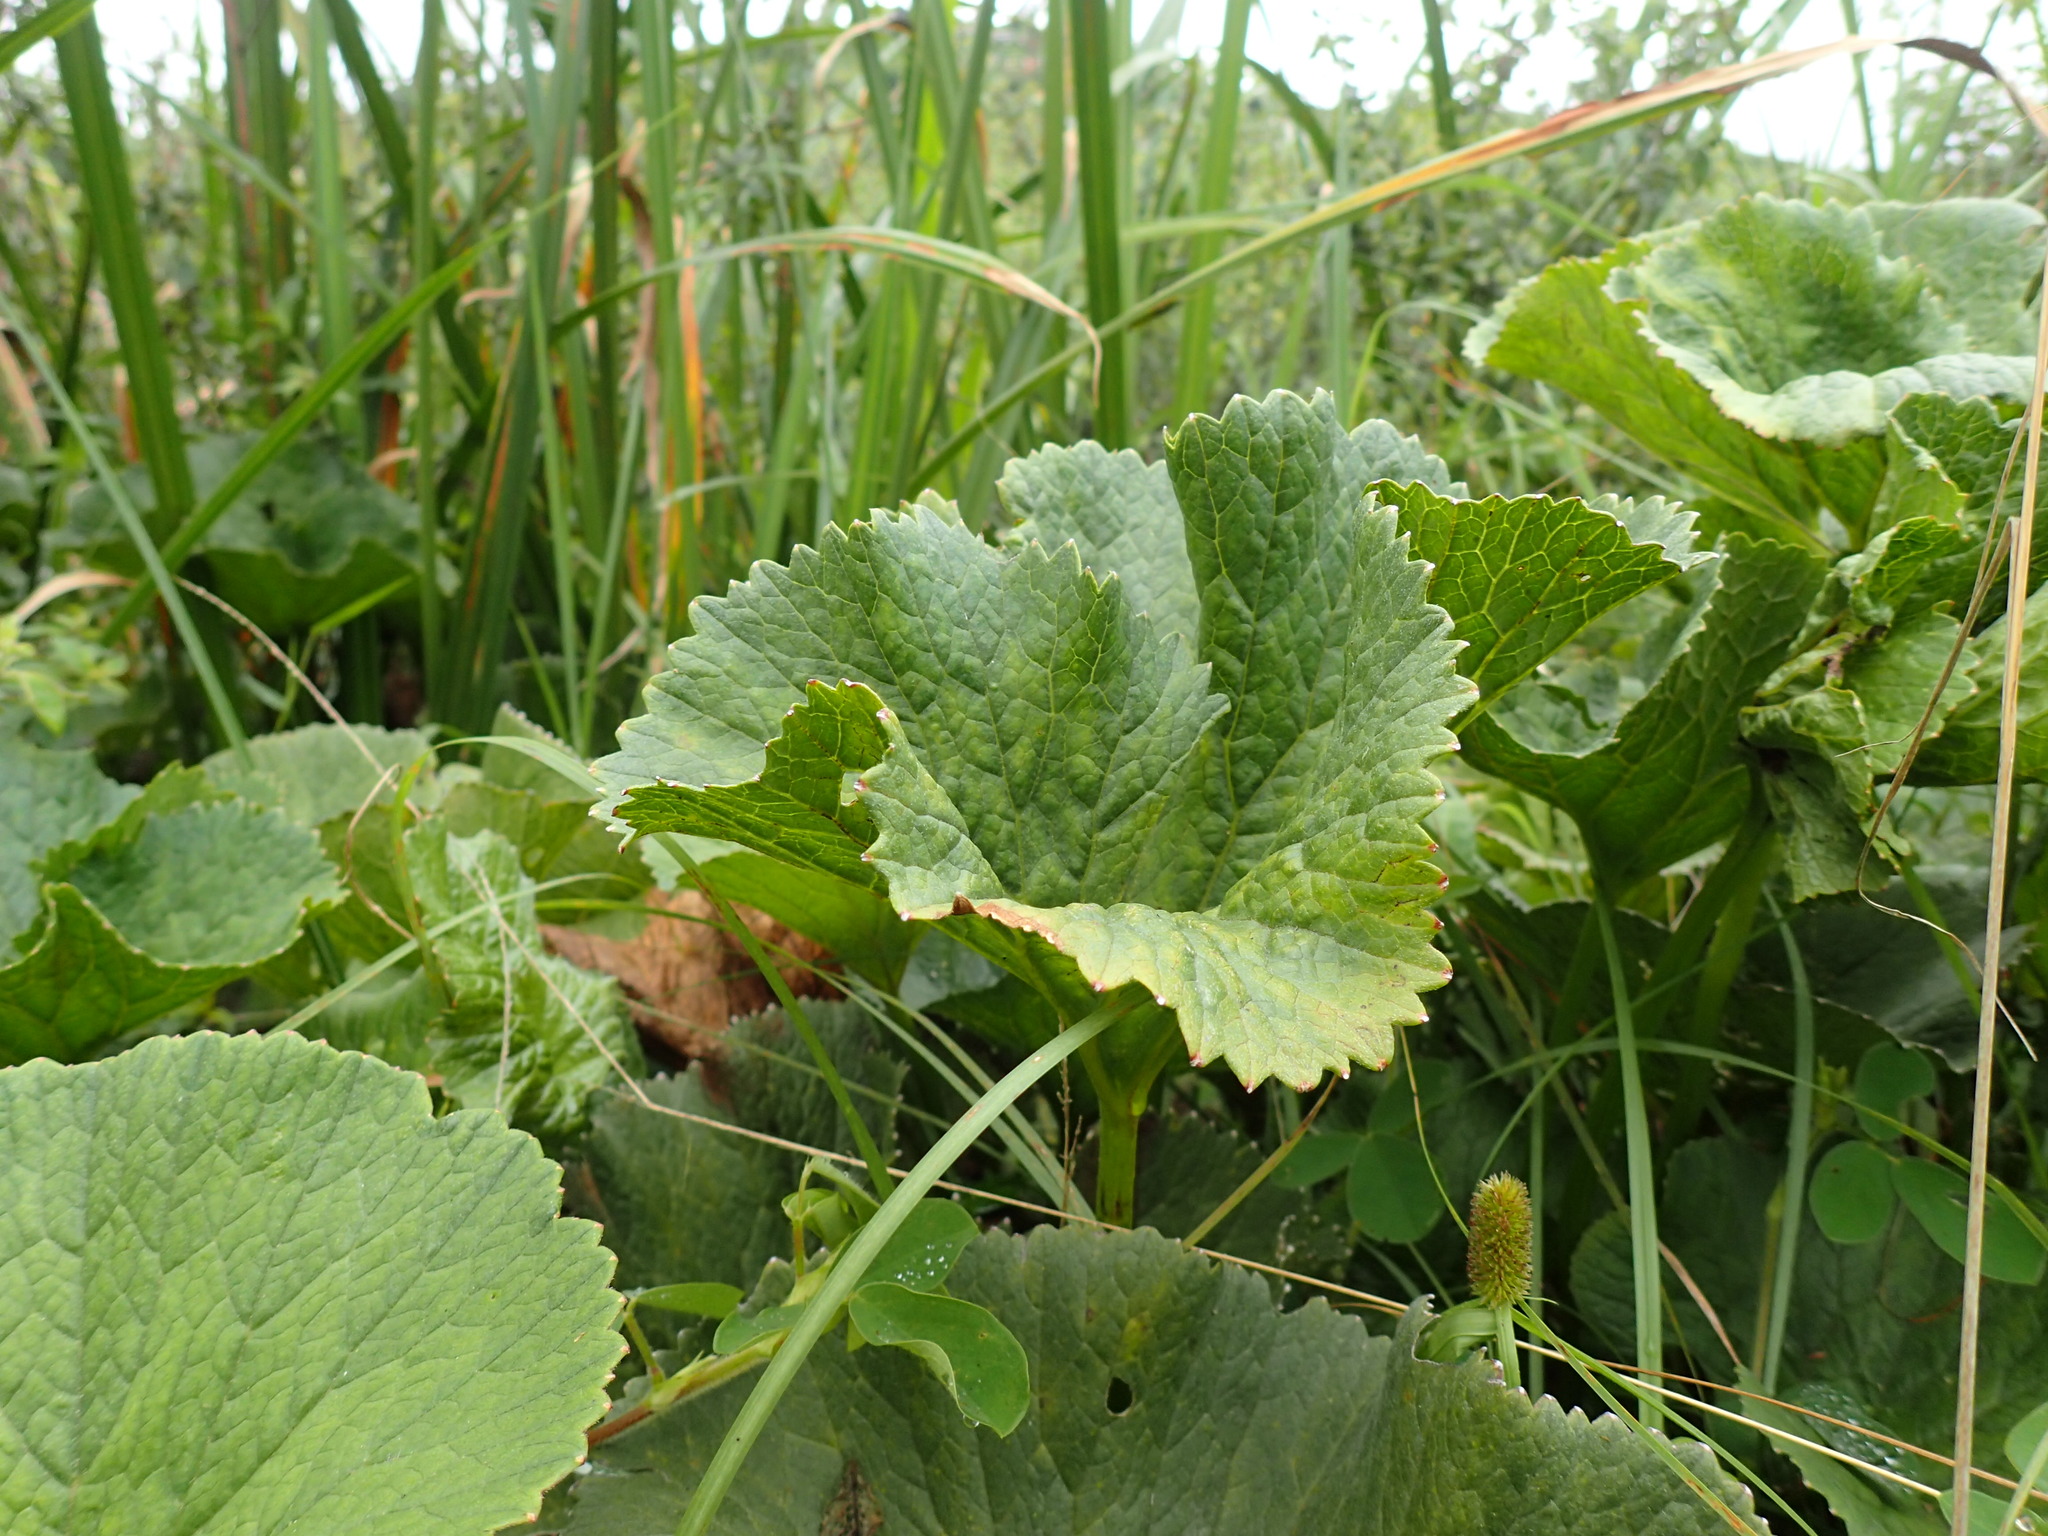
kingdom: Plantae
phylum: Tracheophyta
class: Magnoliopsida
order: Gunnerales
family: Gunneraceae
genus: Gunnera
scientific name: Gunnera perpensa
